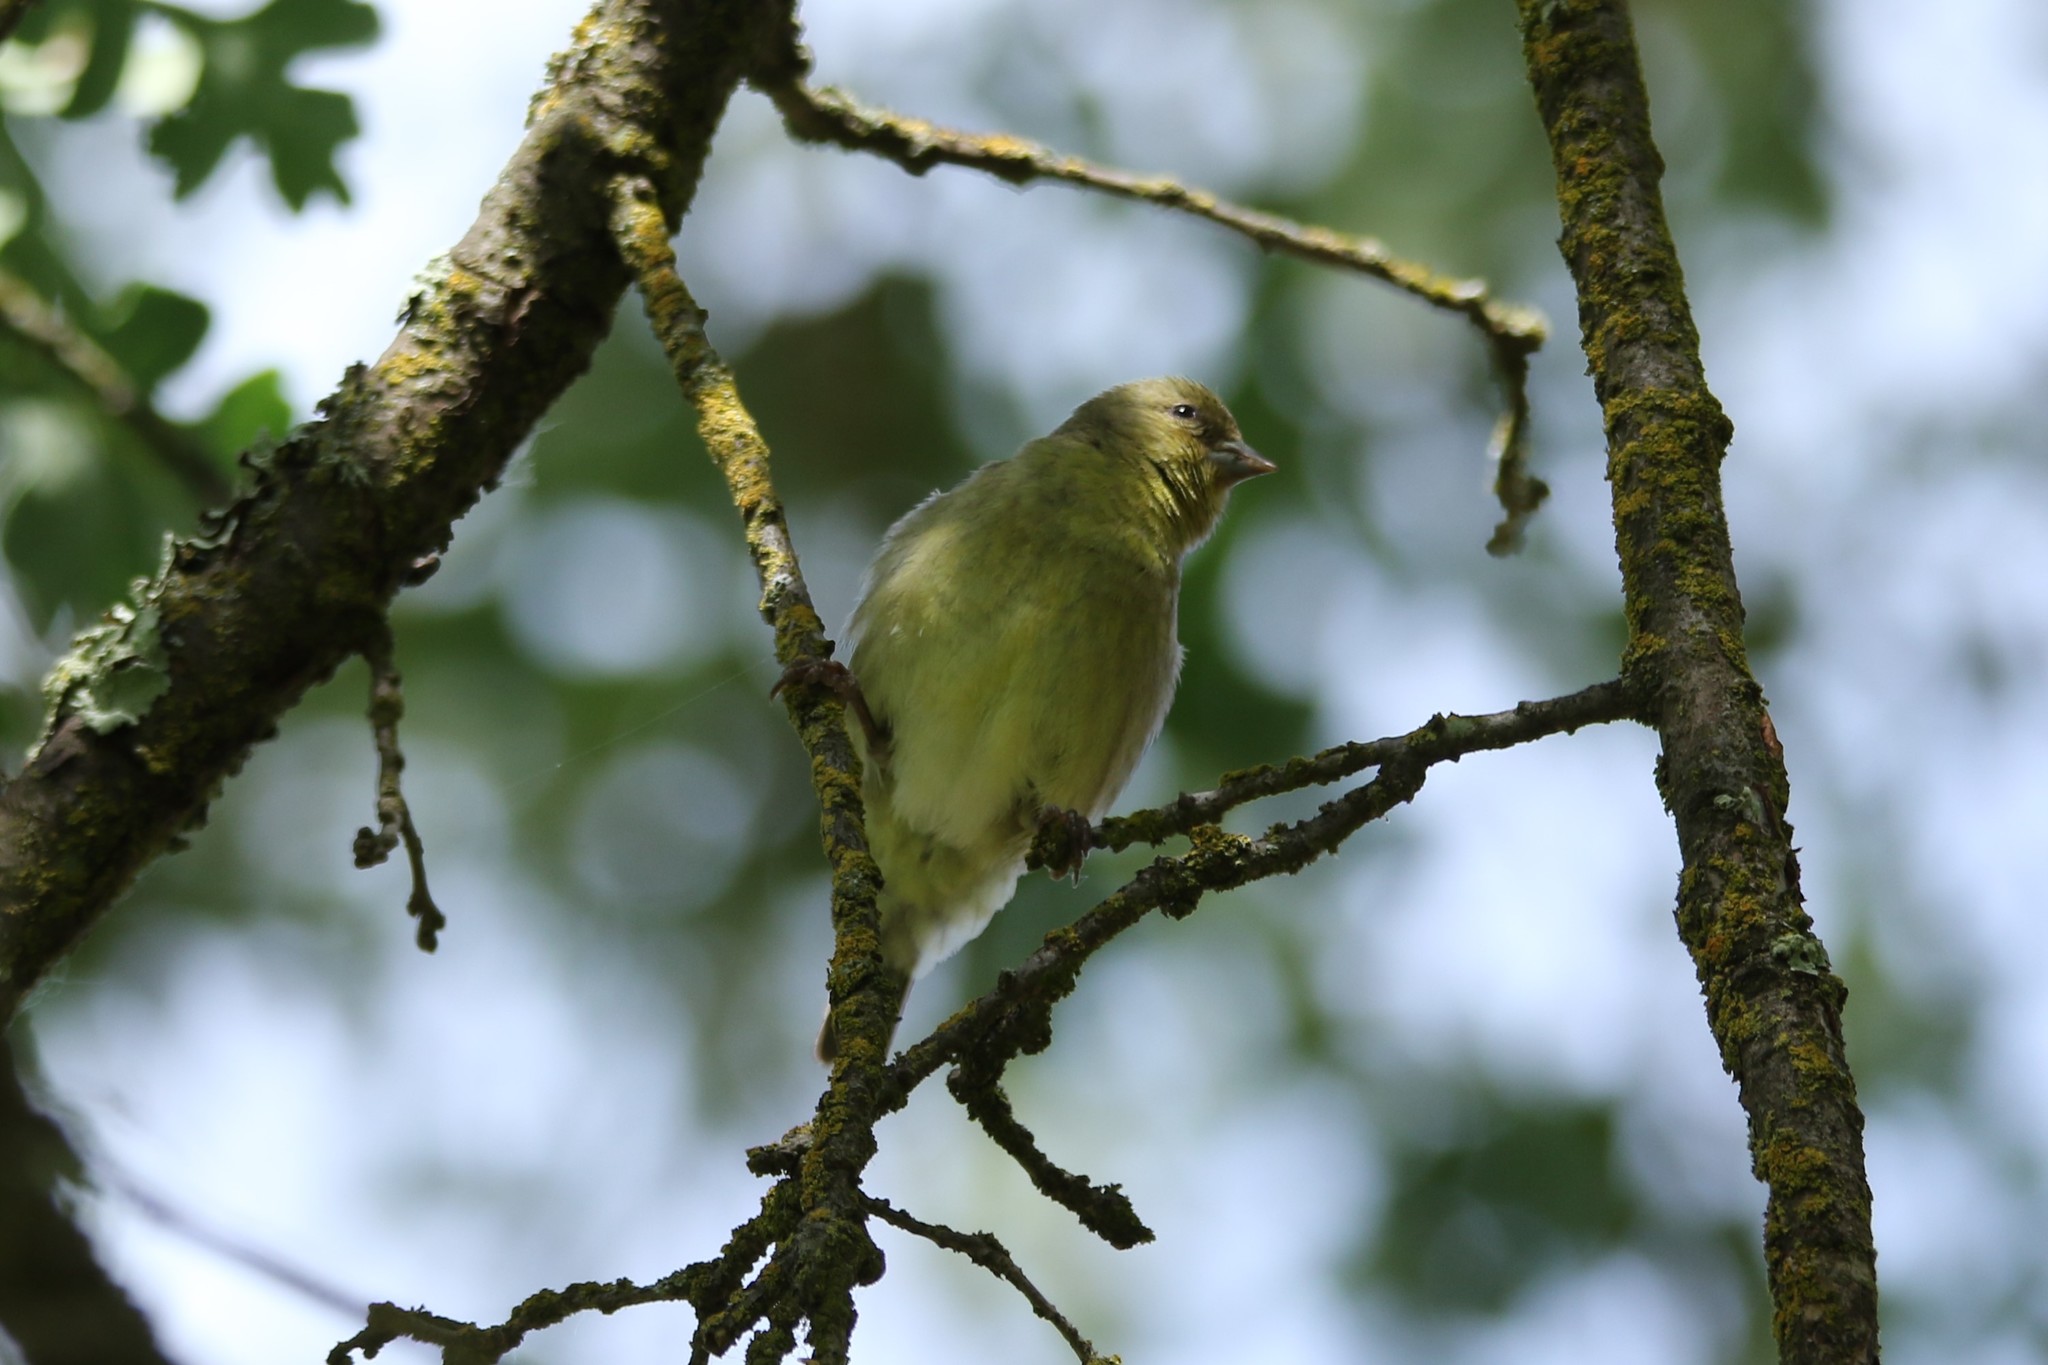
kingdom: Animalia
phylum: Chordata
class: Aves
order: Passeriformes
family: Fringillidae
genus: Spinus
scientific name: Spinus psaltria
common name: Lesser goldfinch
